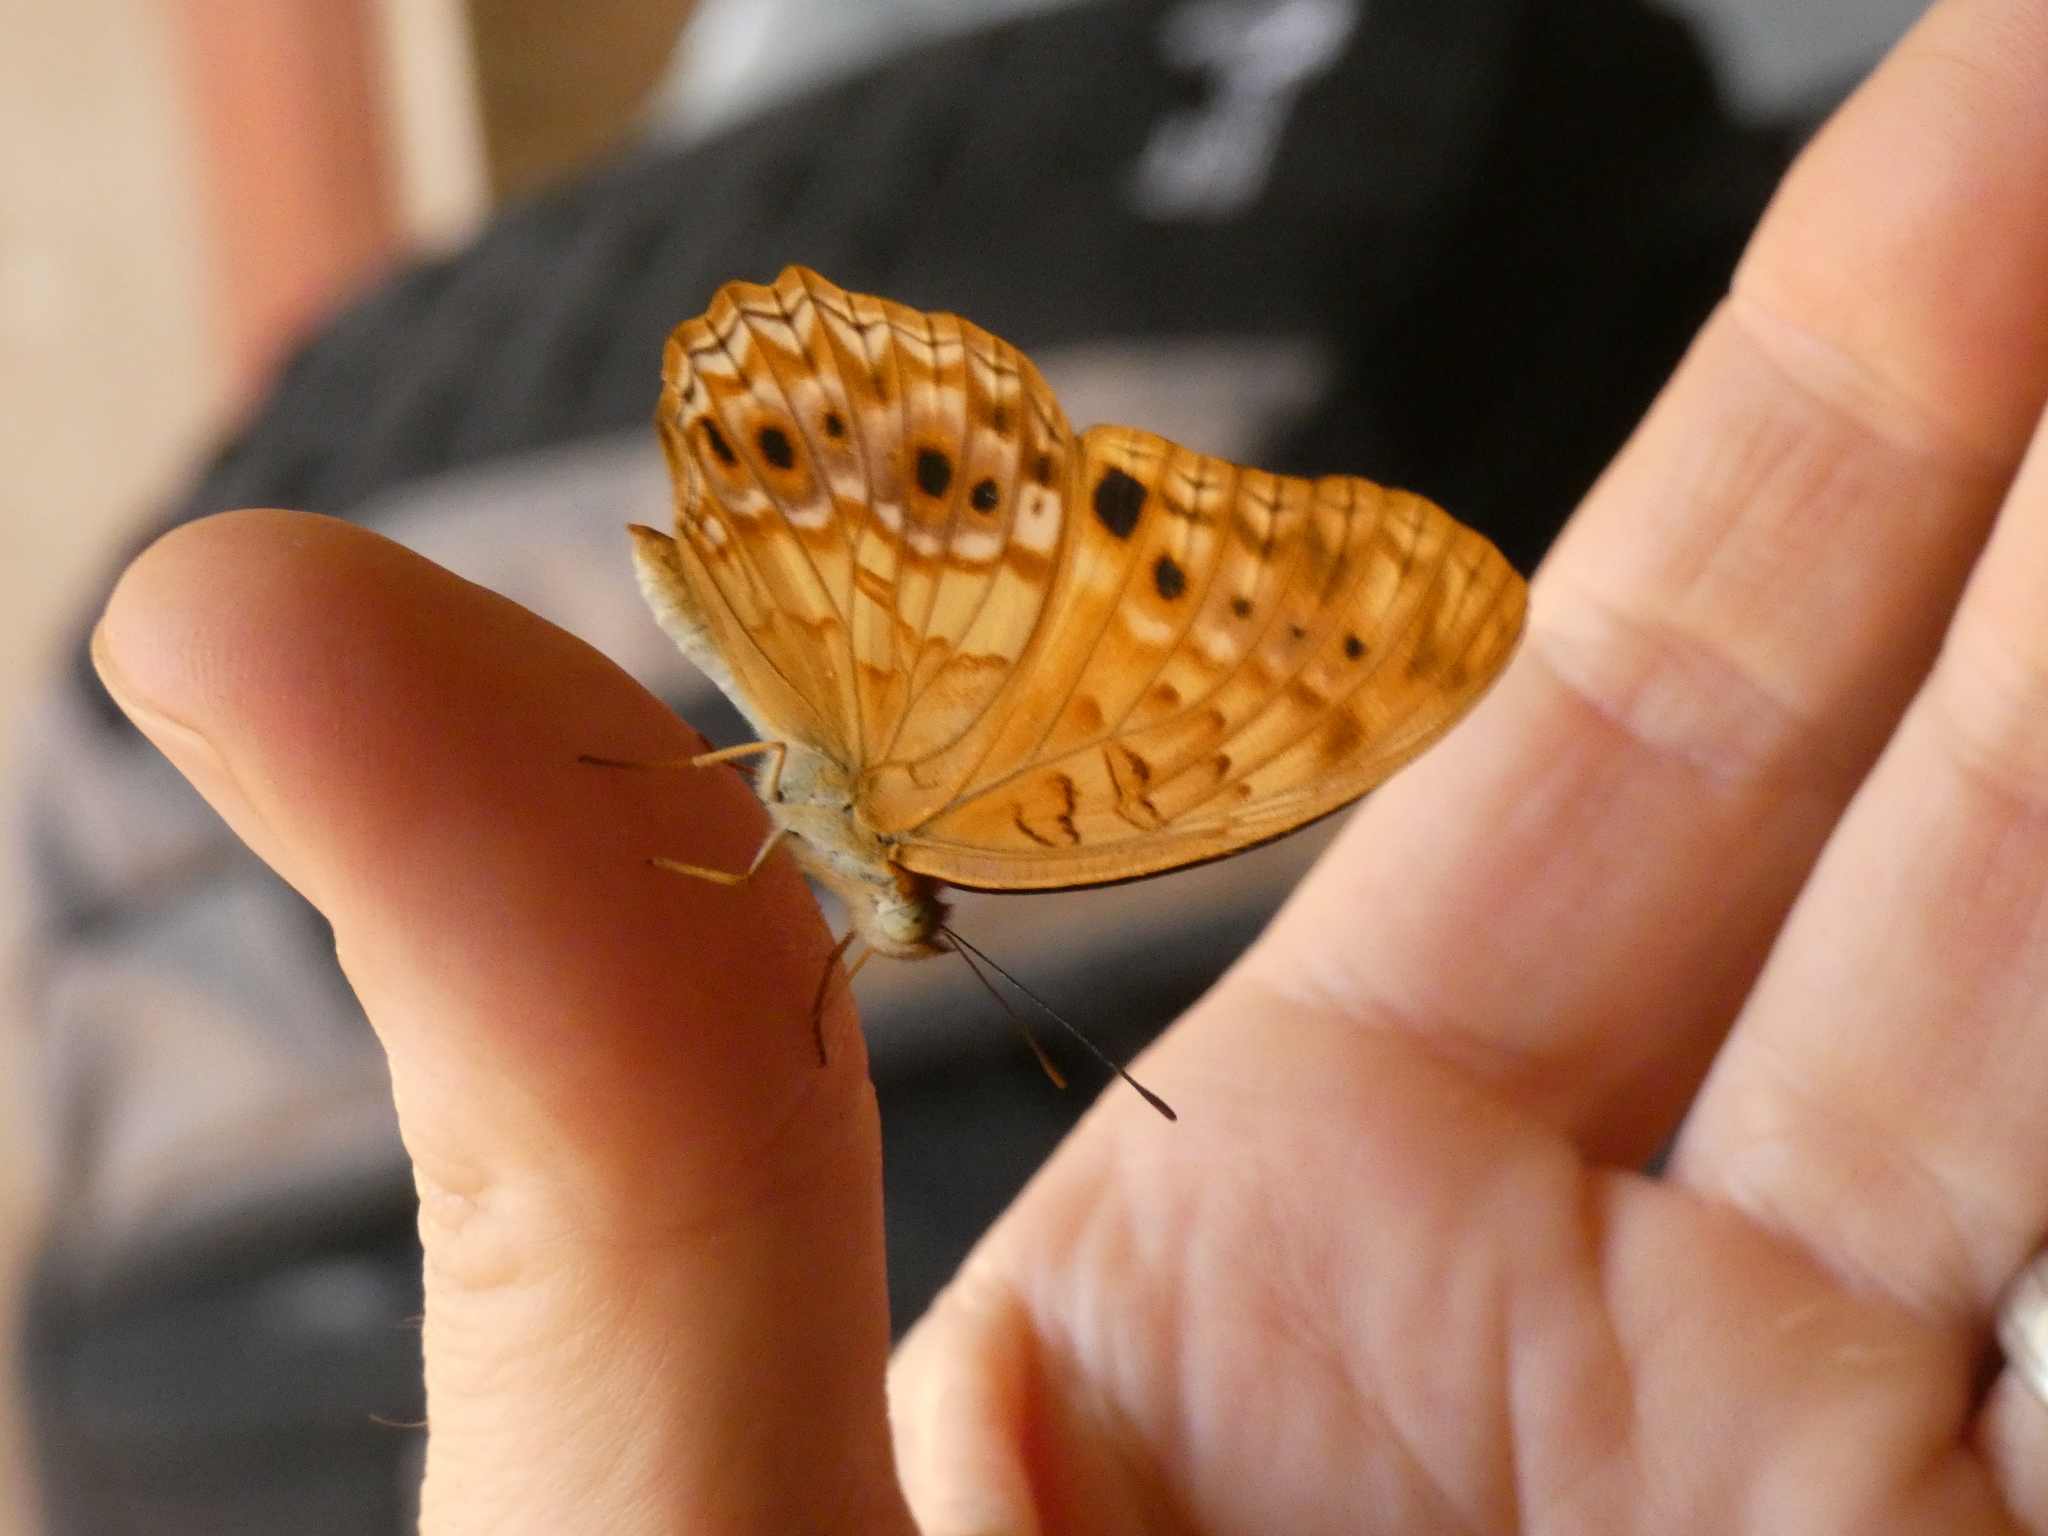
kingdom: Animalia
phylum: Arthropoda
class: Insecta
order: Lepidoptera
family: Nymphalidae
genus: Phalanta
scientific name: Phalanta columbina
